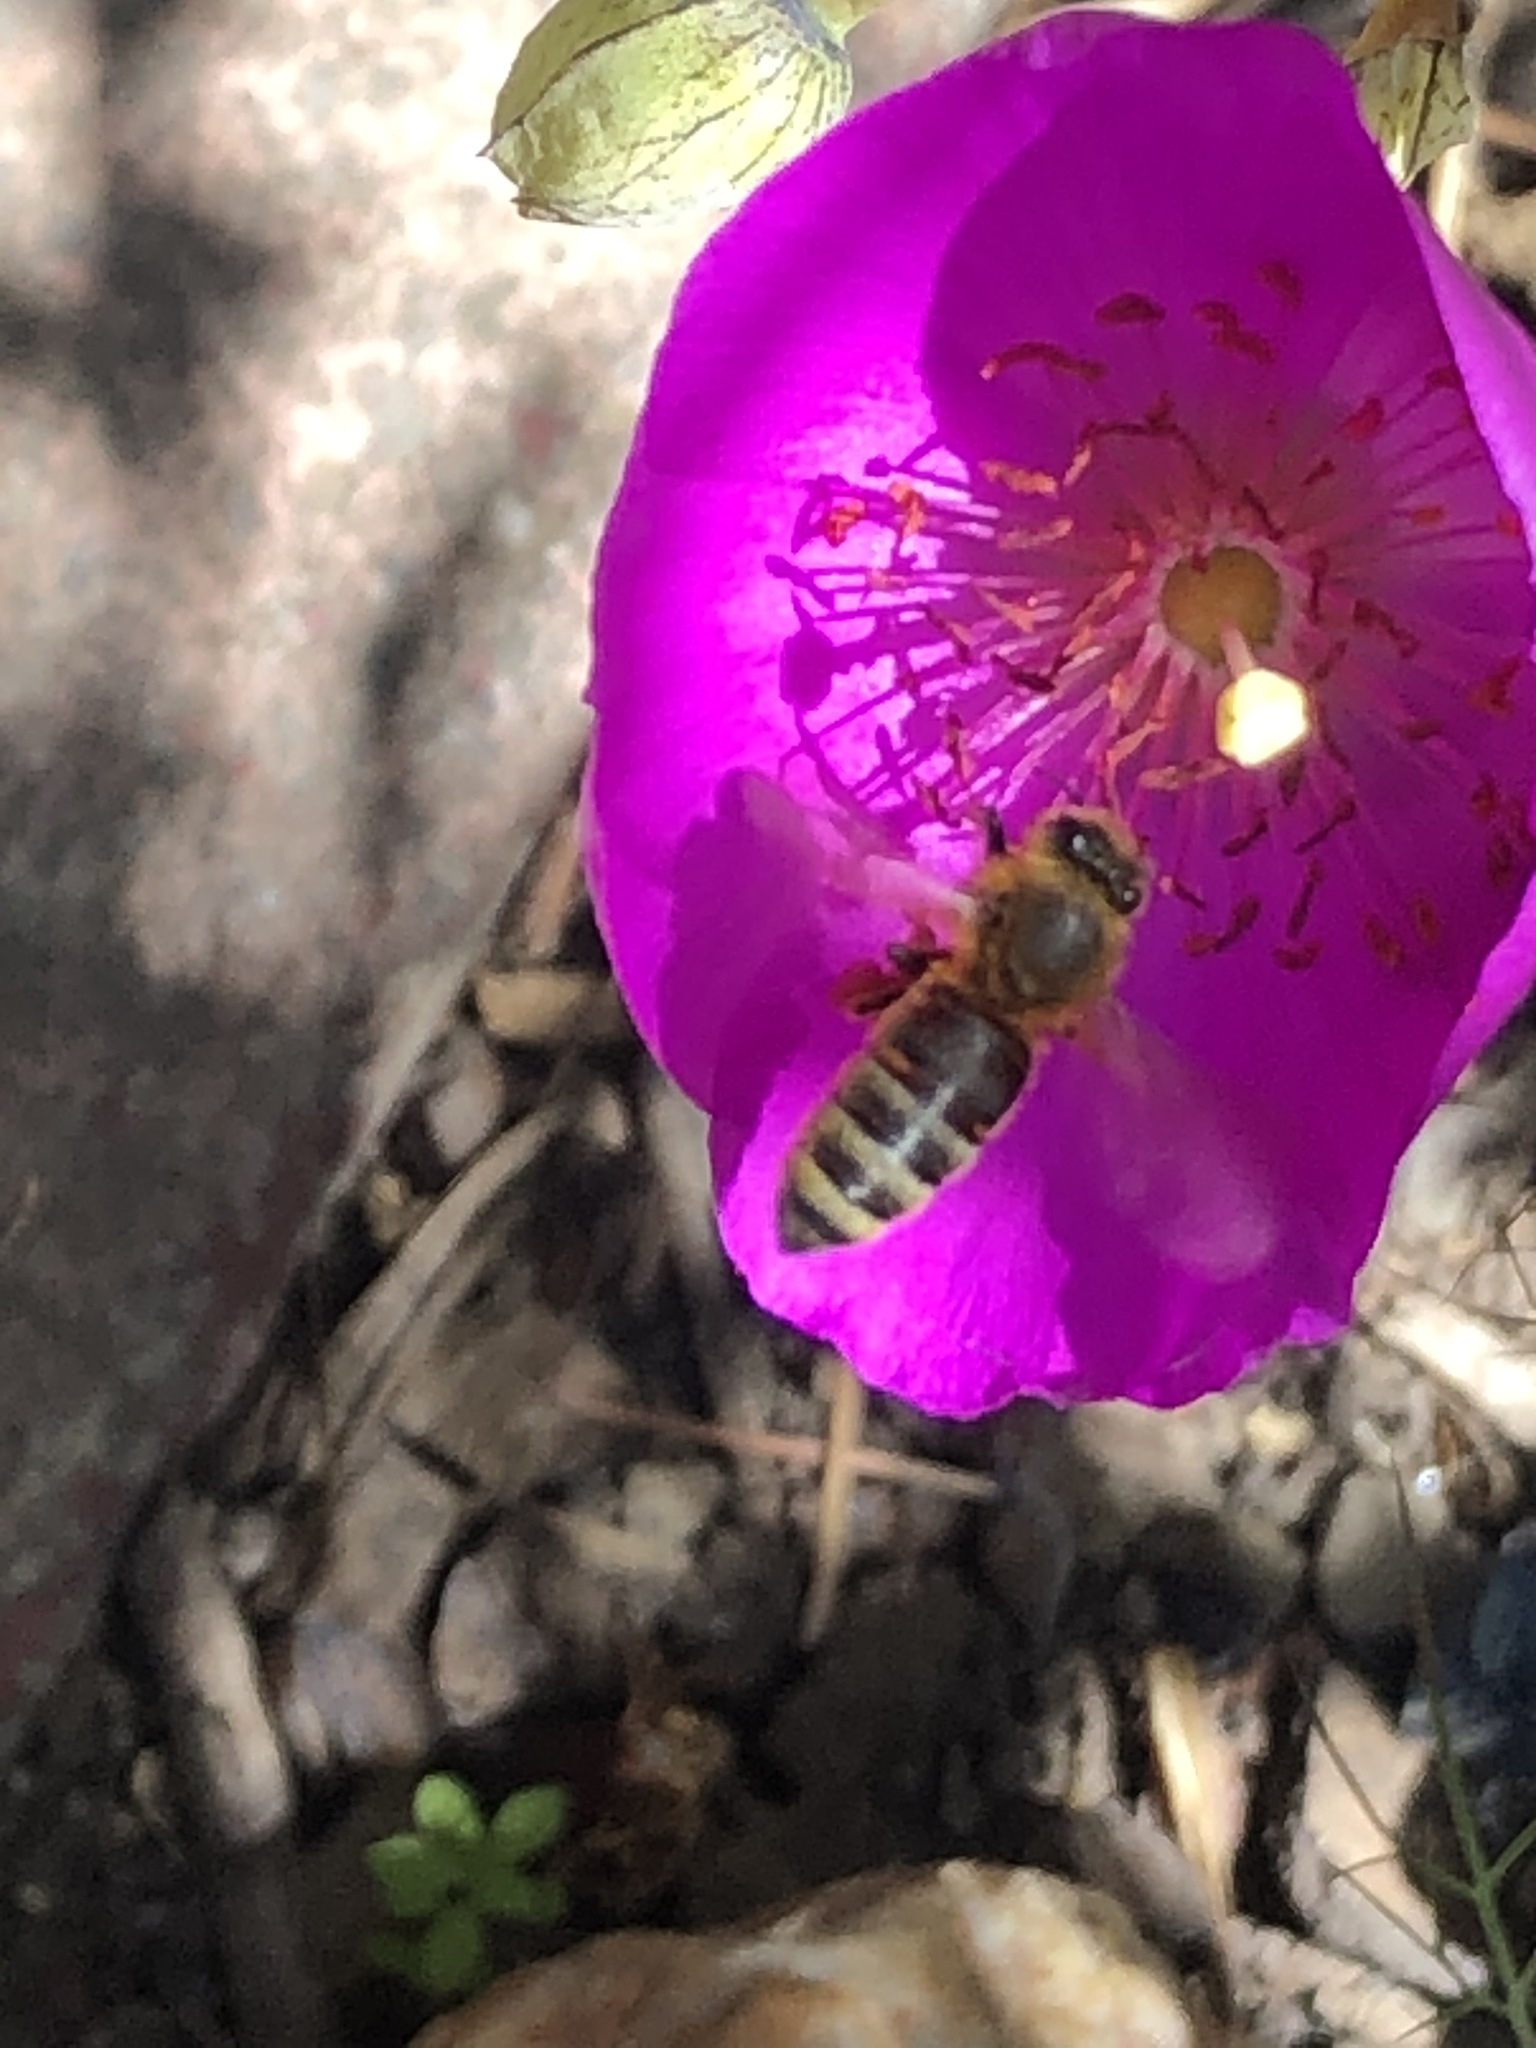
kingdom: Animalia
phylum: Arthropoda
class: Insecta
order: Hymenoptera
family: Apidae
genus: Apis
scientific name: Apis mellifera
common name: Honey bee
